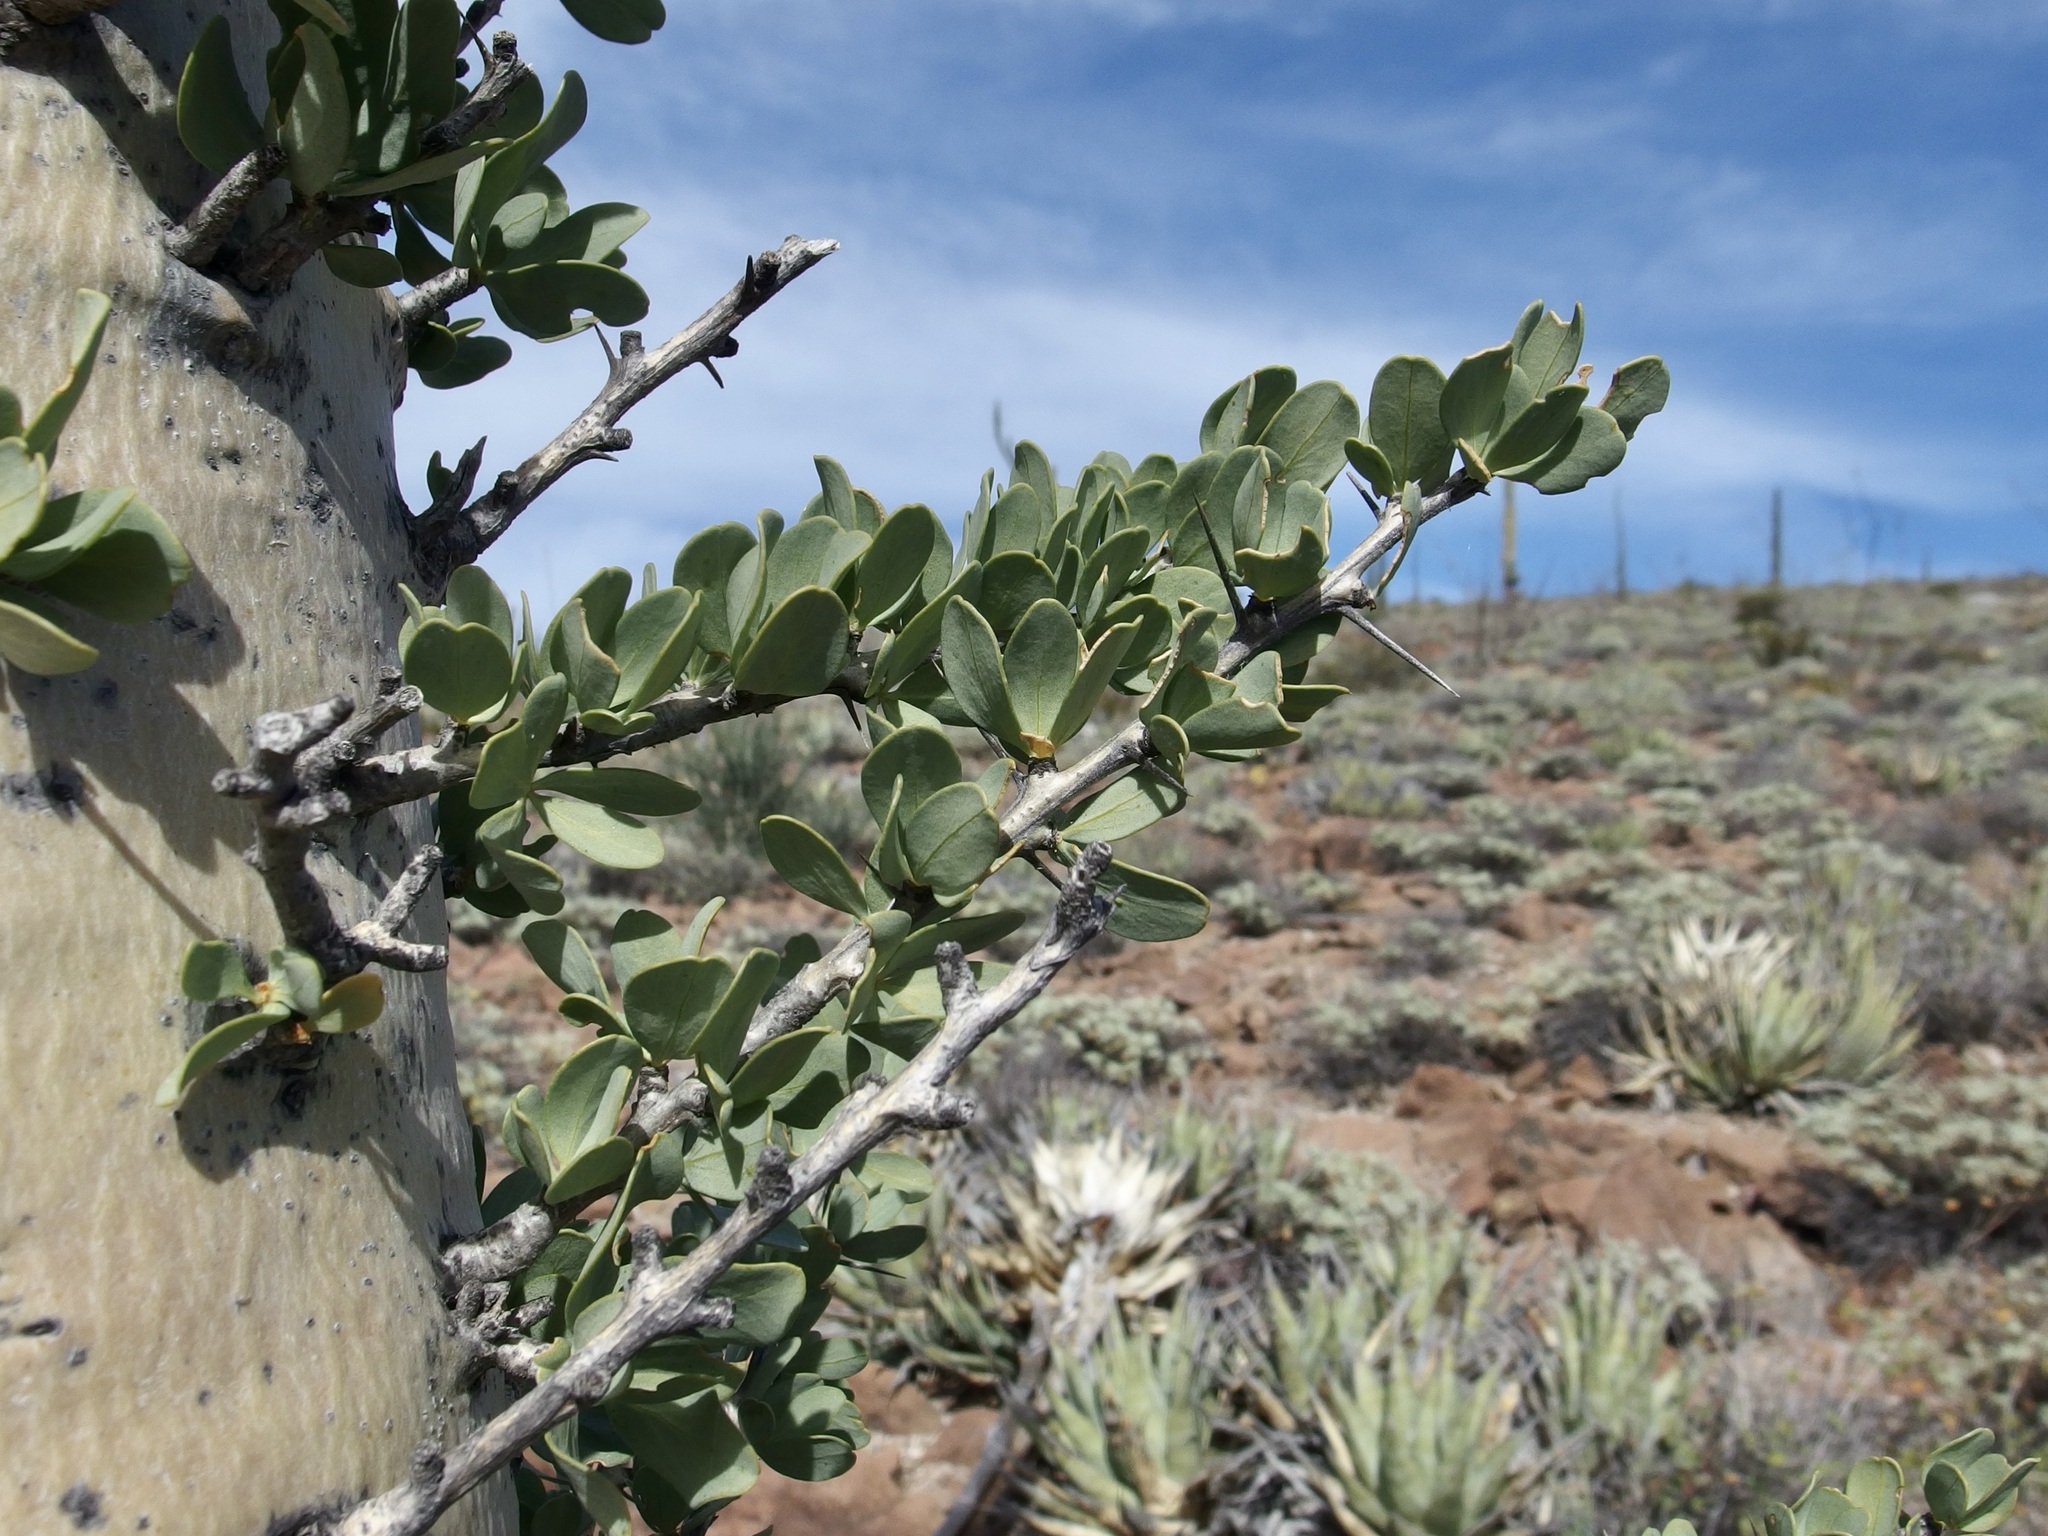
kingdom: Plantae
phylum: Tracheophyta
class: Magnoliopsida
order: Ericales
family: Fouquieriaceae
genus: Fouquieria
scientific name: Fouquieria columnaris
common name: Boojumtree
